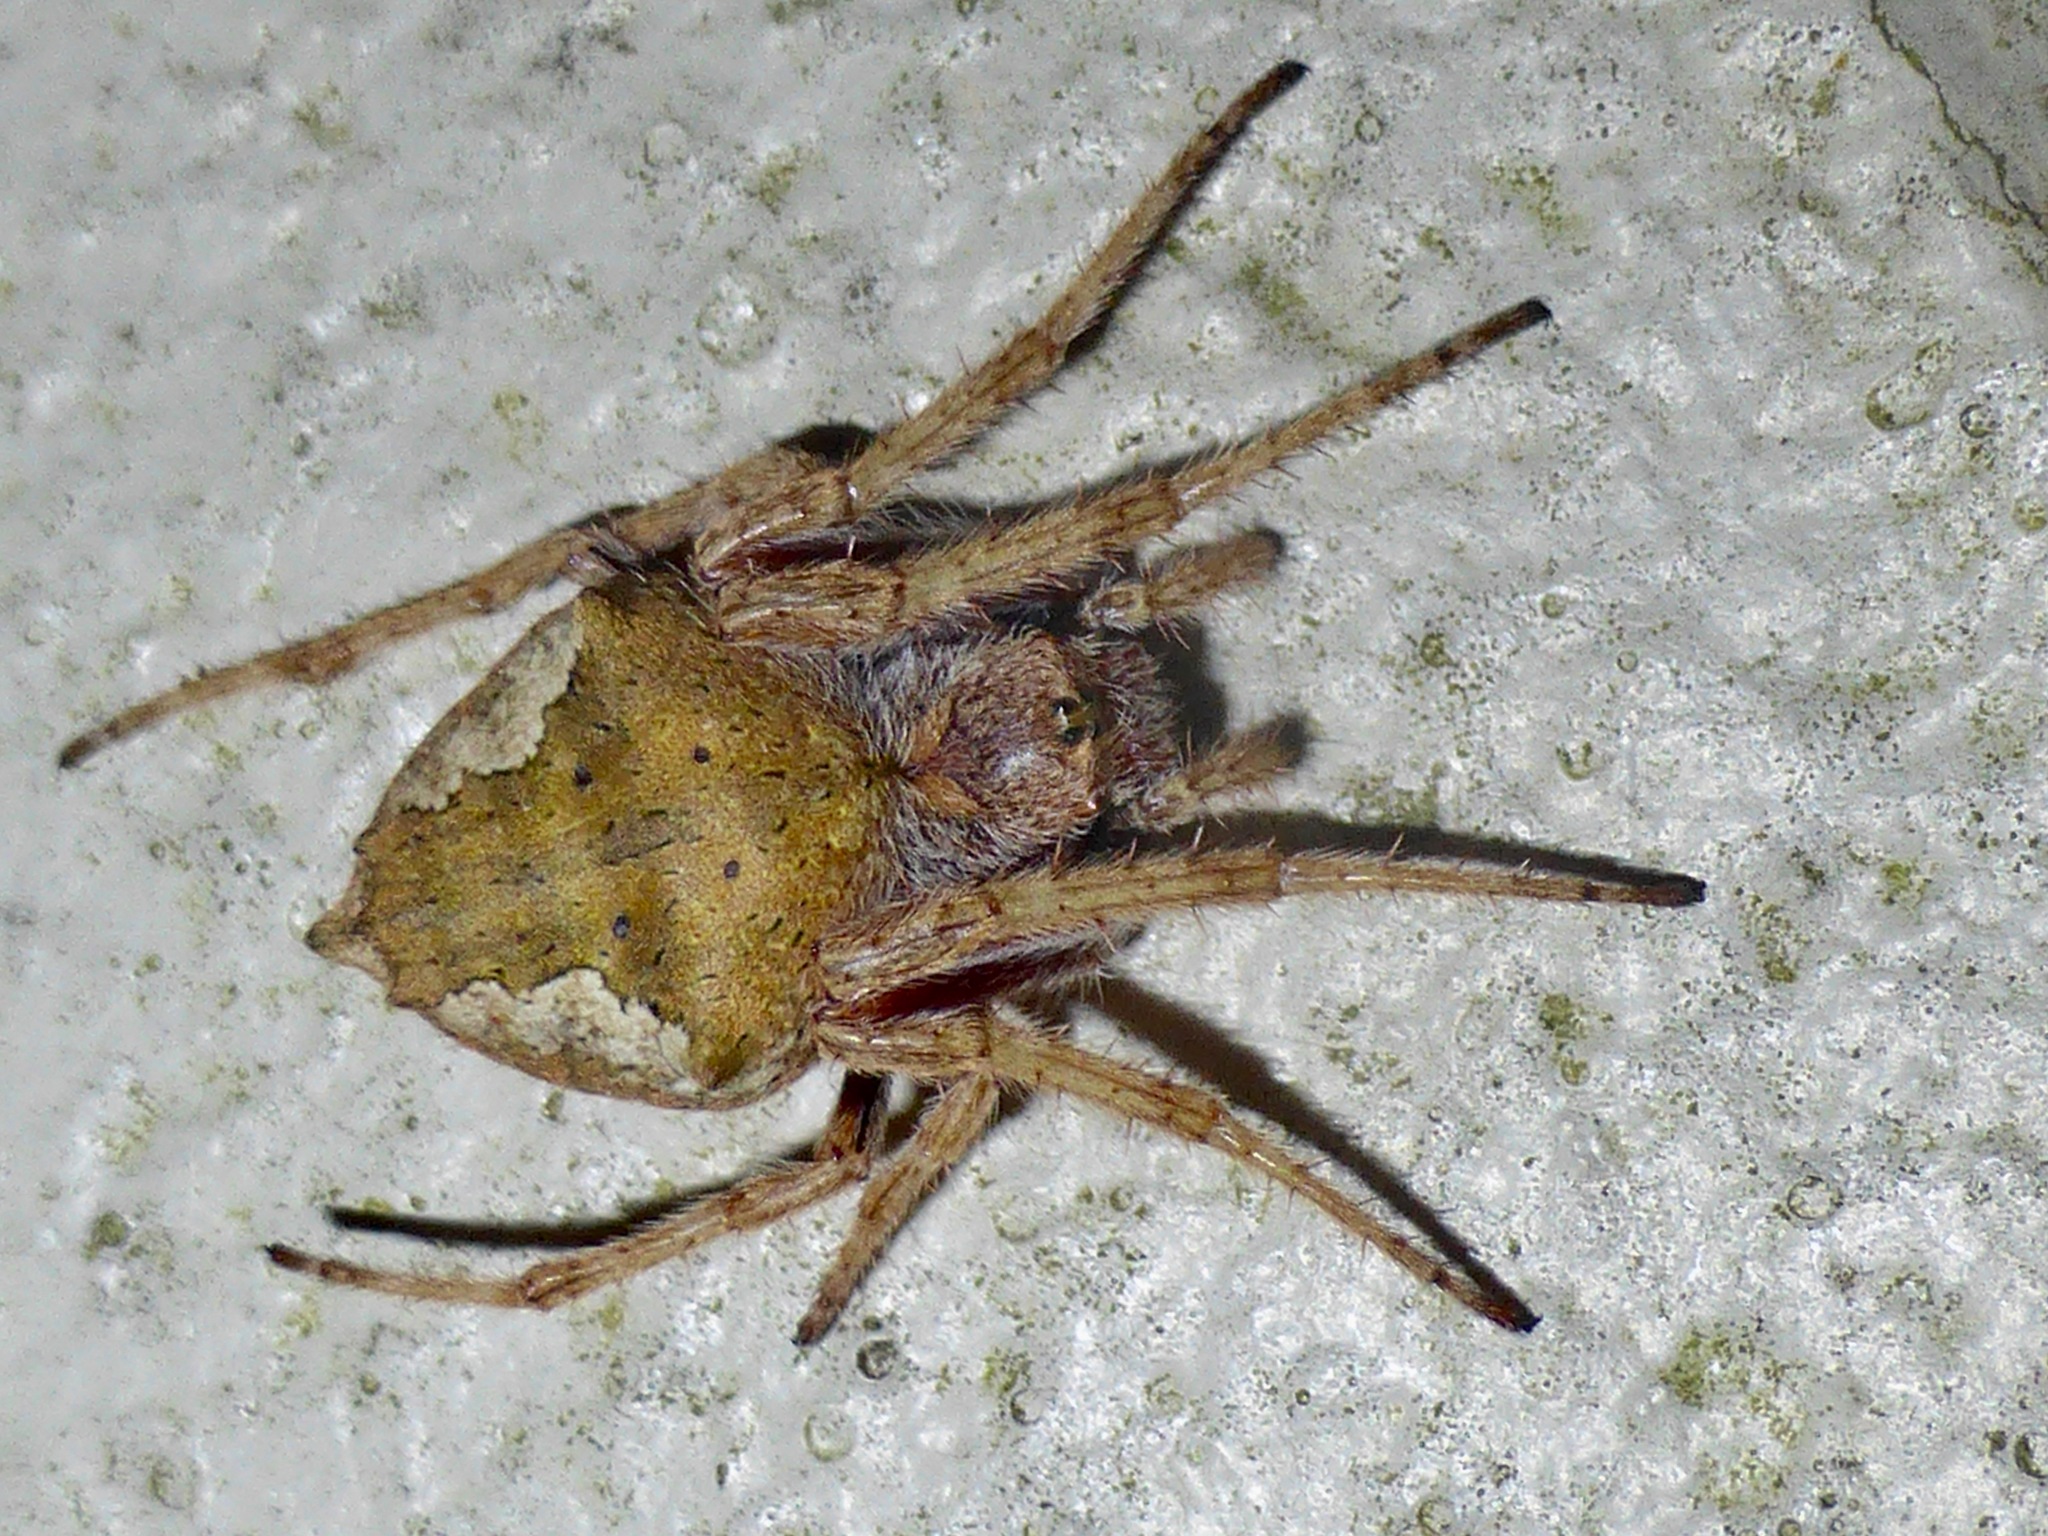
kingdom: Animalia
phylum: Arthropoda
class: Arachnida
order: Araneae
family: Araneidae
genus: Eriophora
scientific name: Eriophora pustulosa
